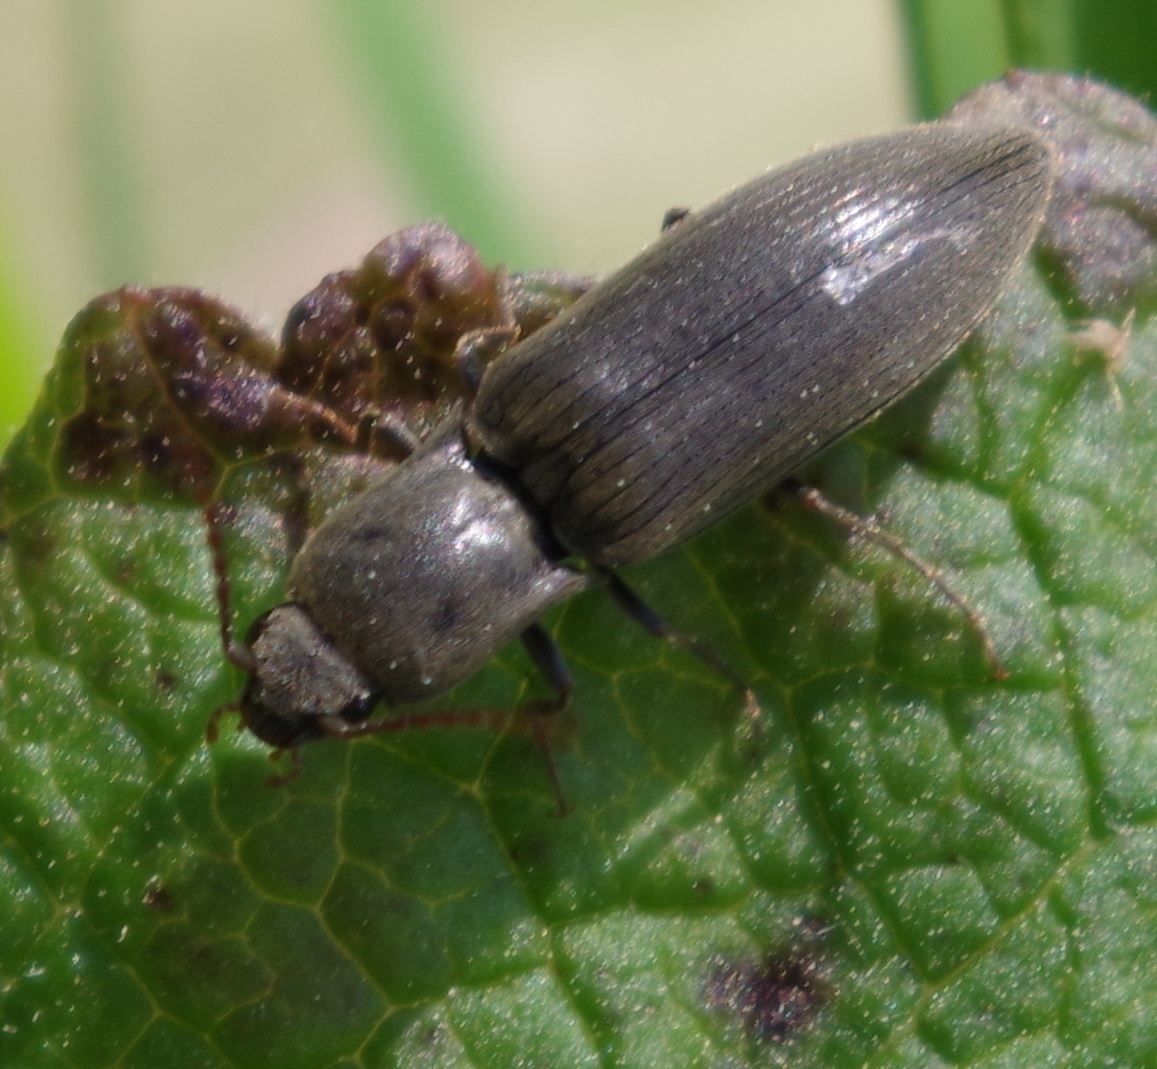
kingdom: Animalia
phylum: Arthropoda
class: Insecta
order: Coleoptera
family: Elateridae
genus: Agriotes
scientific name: Agriotes pilosellus
